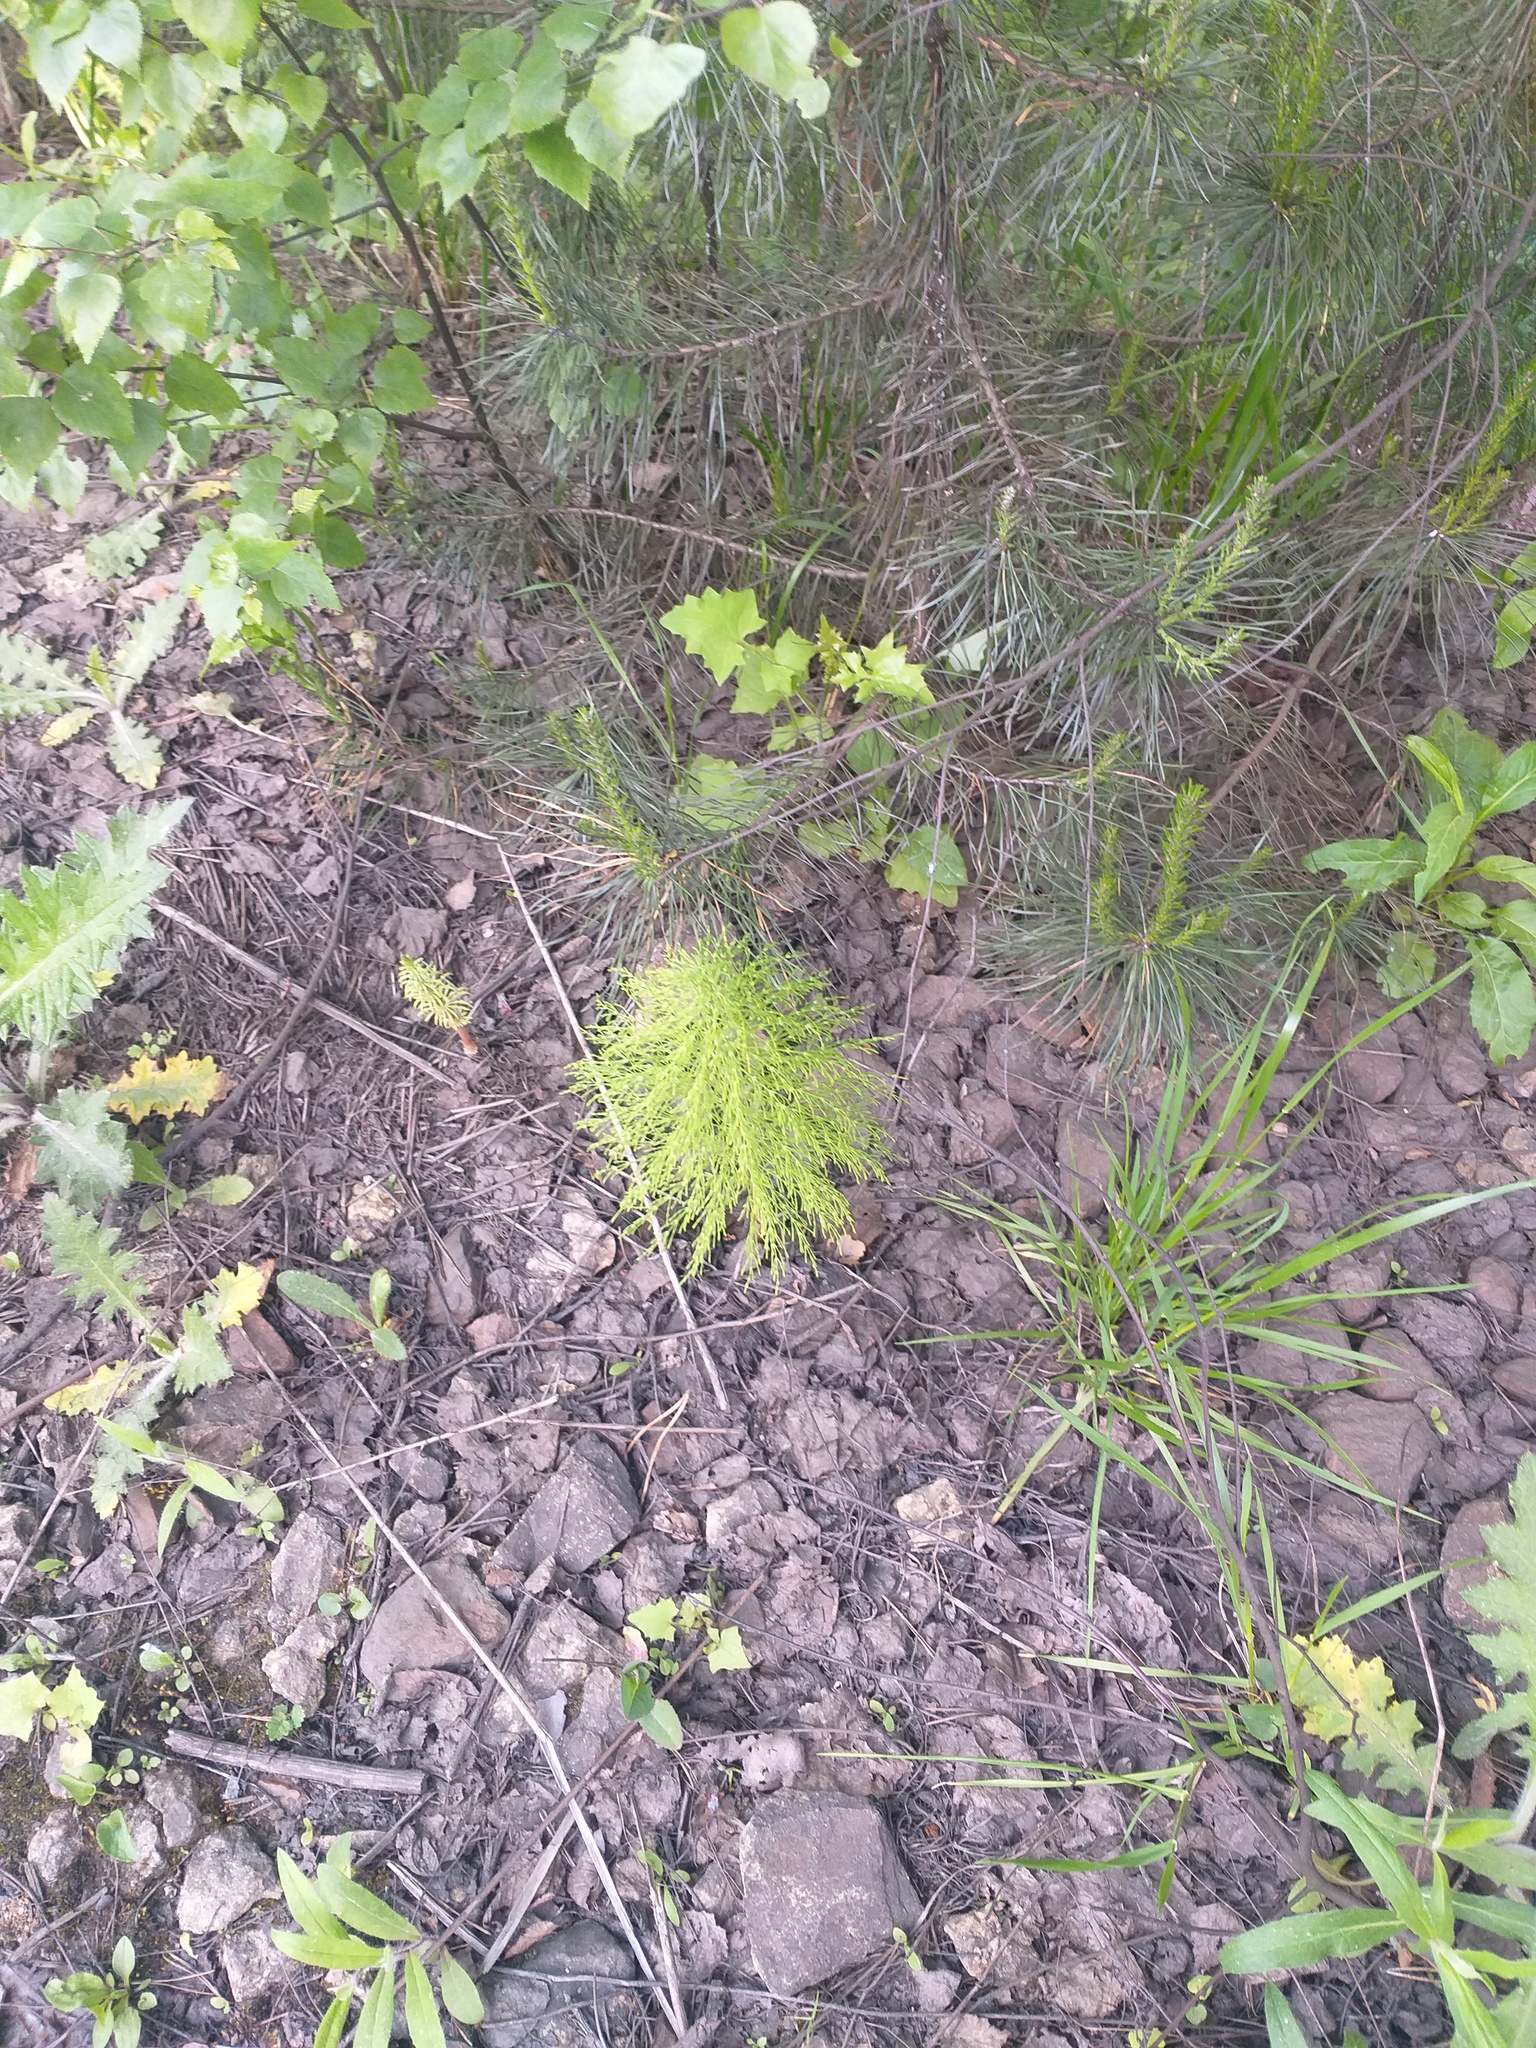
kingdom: Plantae
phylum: Tracheophyta
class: Polypodiopsida
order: Equisetales
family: Equisetaceae
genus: Equisetum
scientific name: Equisetum sylvaticum
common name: Wood horsetail
